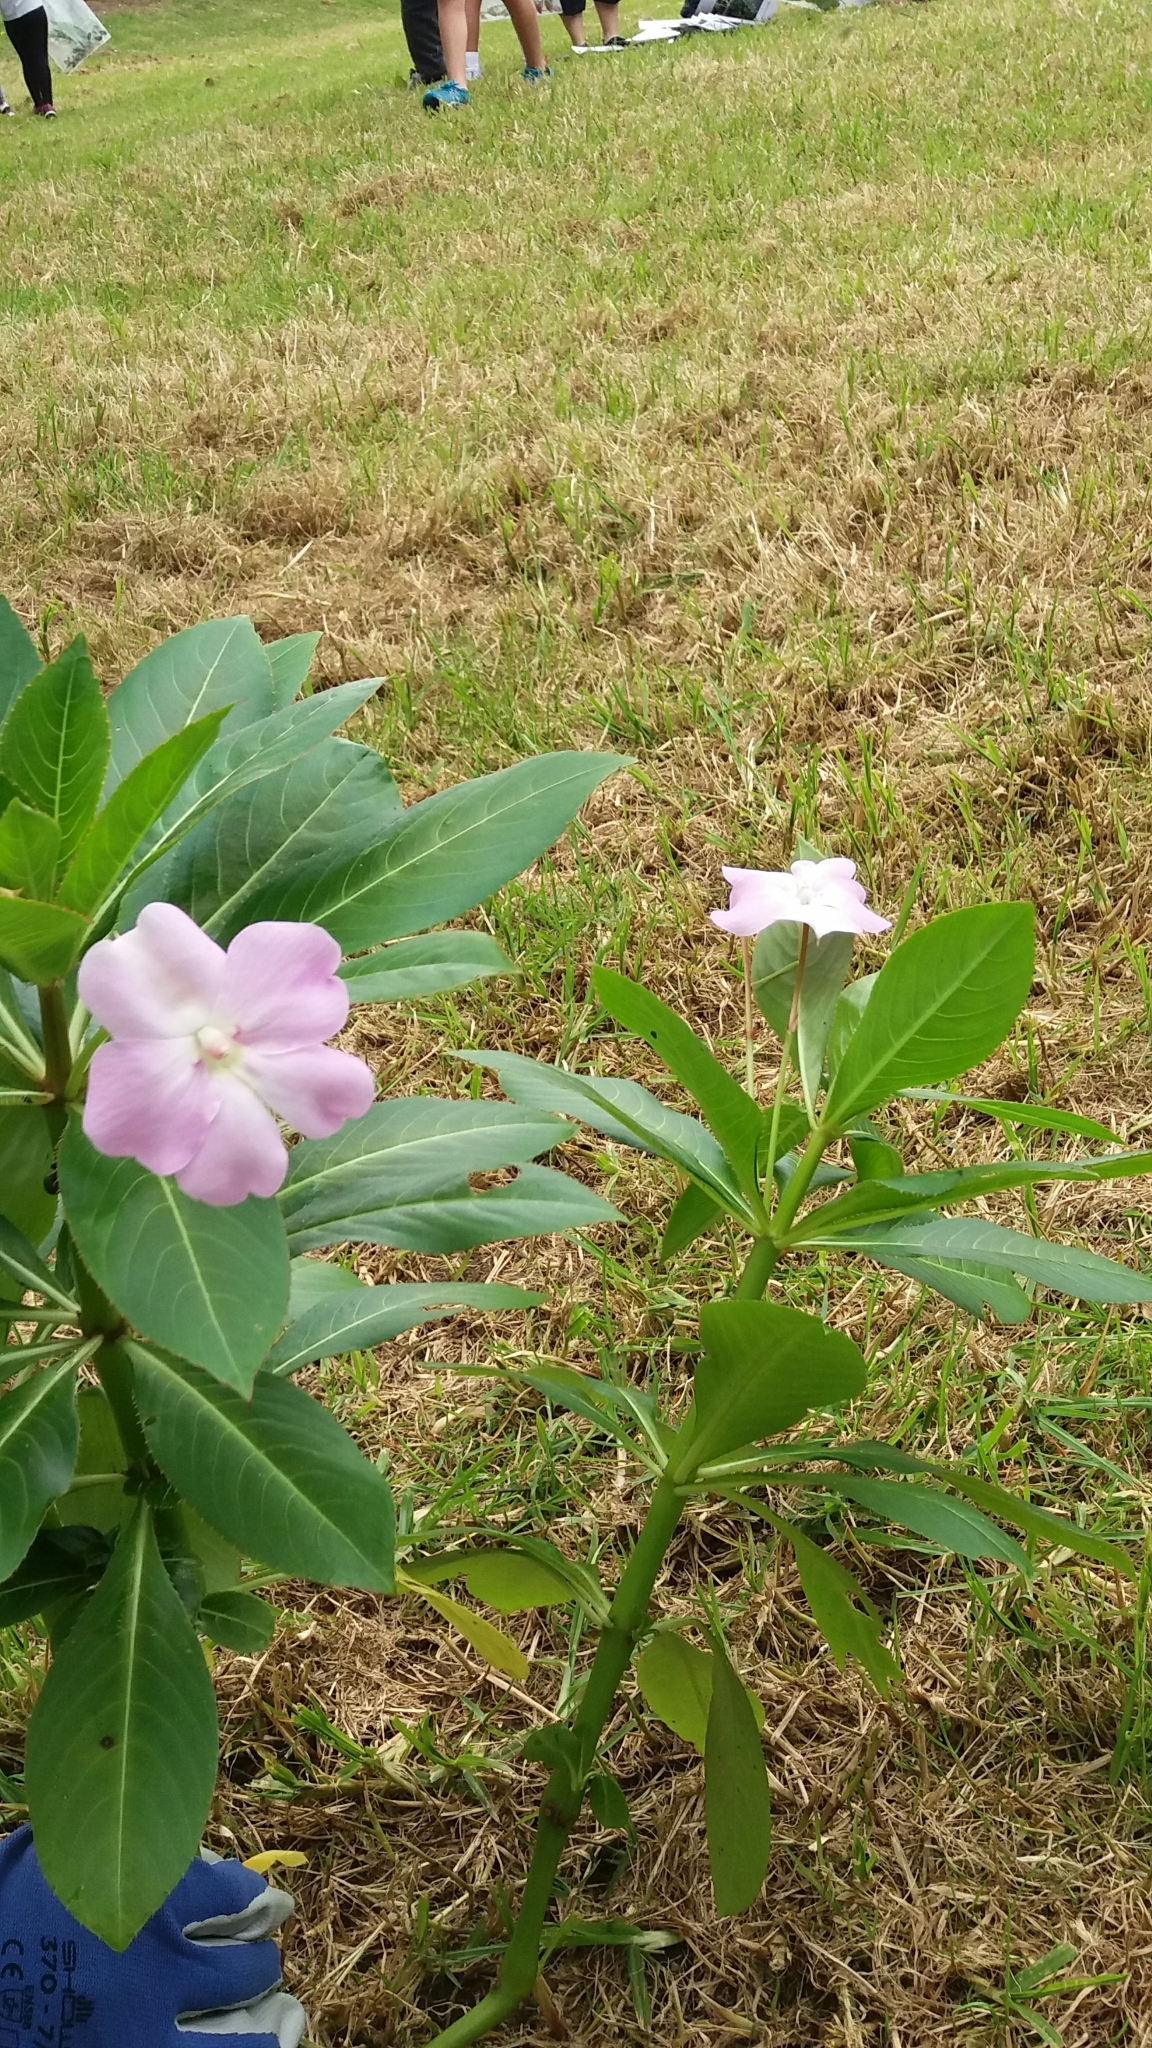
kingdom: Plantae
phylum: Tracheophyta
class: Magnoliopsida
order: Ericales
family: Balsaminaceae
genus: Impatiens
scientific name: Impatiens sodenii
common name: Oliver's touch-me-not
